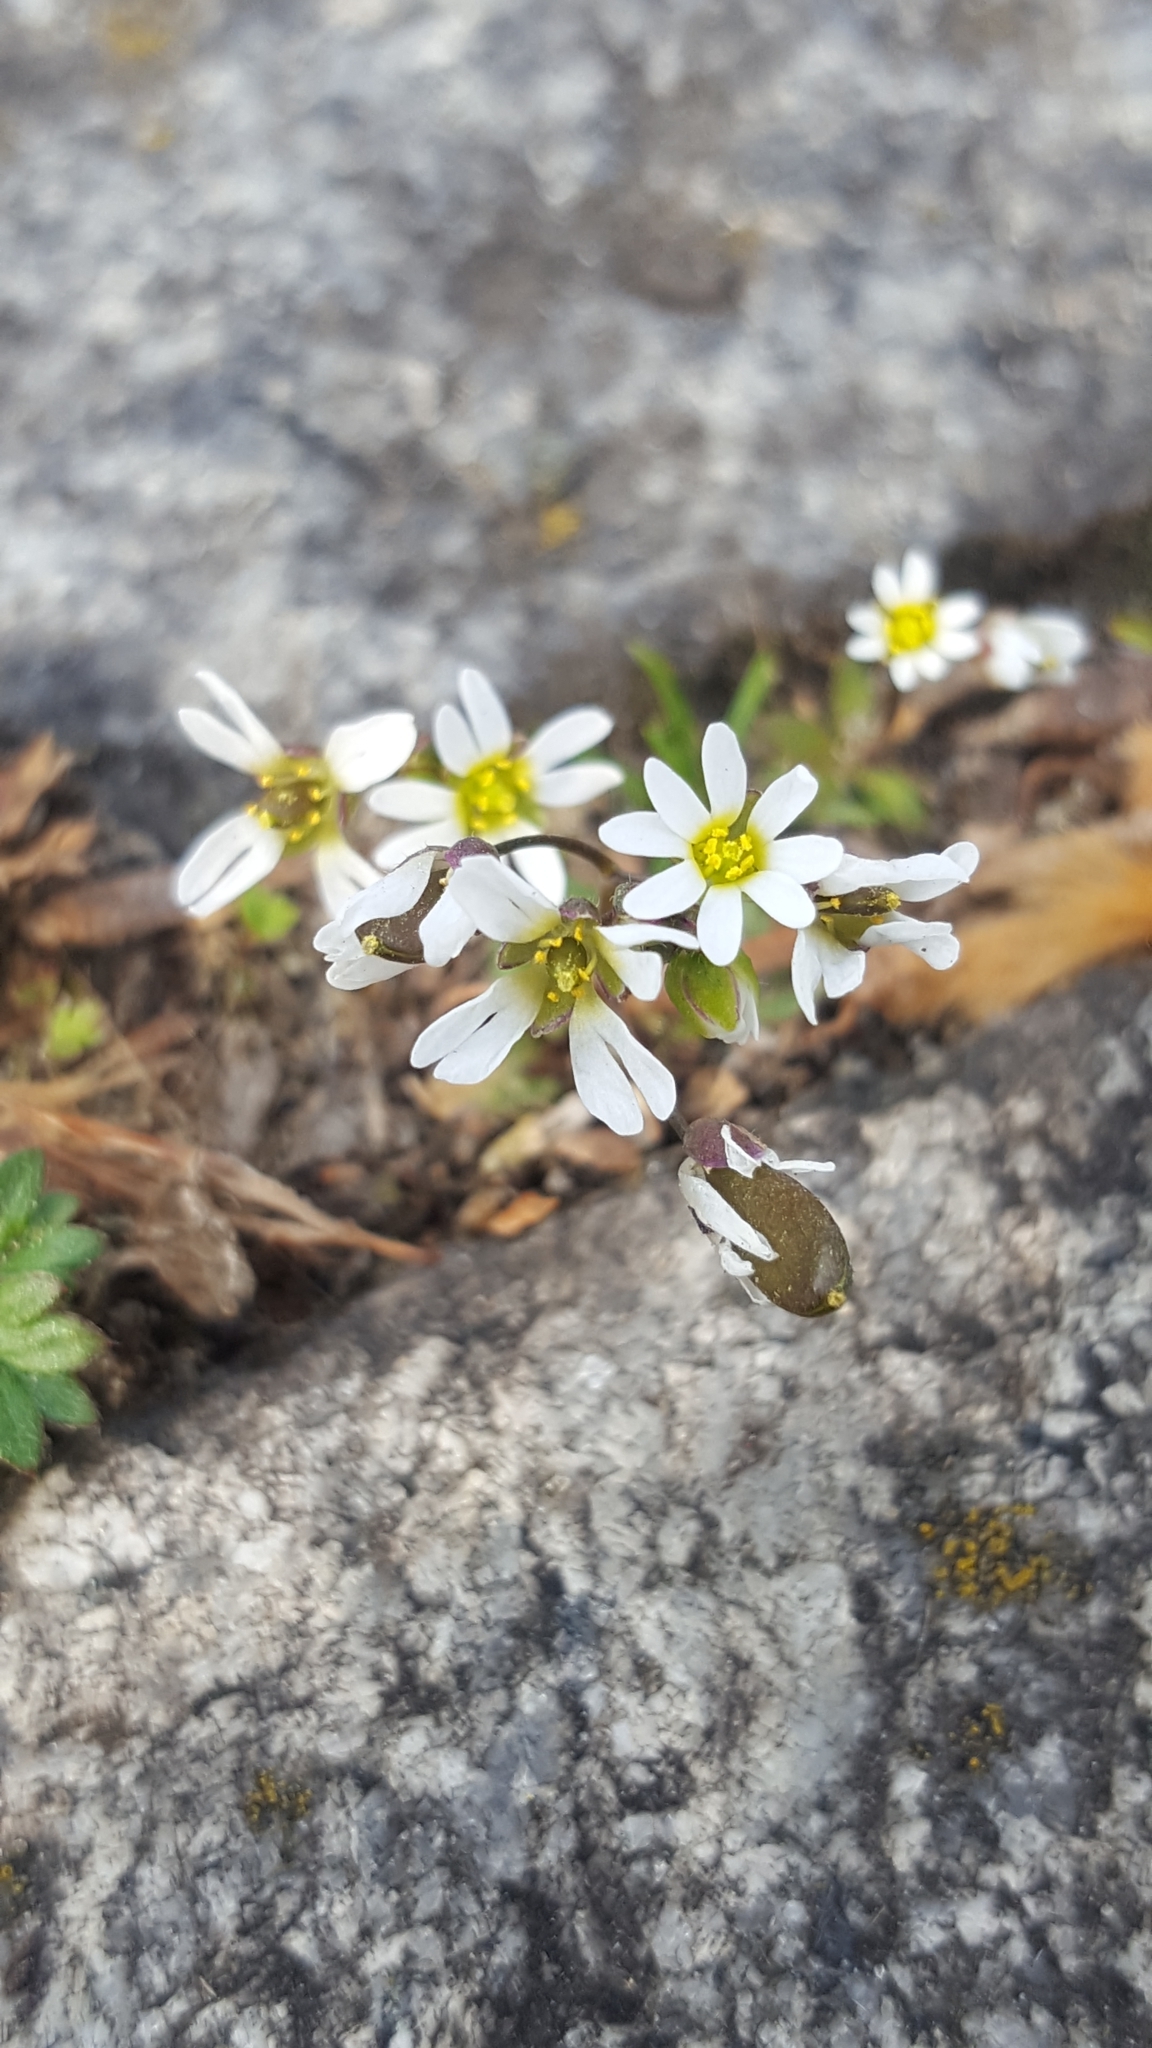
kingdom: Plantae
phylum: Tracheophyta
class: Magnoliopsida
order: Brassicales
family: Brassicaceae
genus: Draba
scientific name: Draba verna
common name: Spring draba
